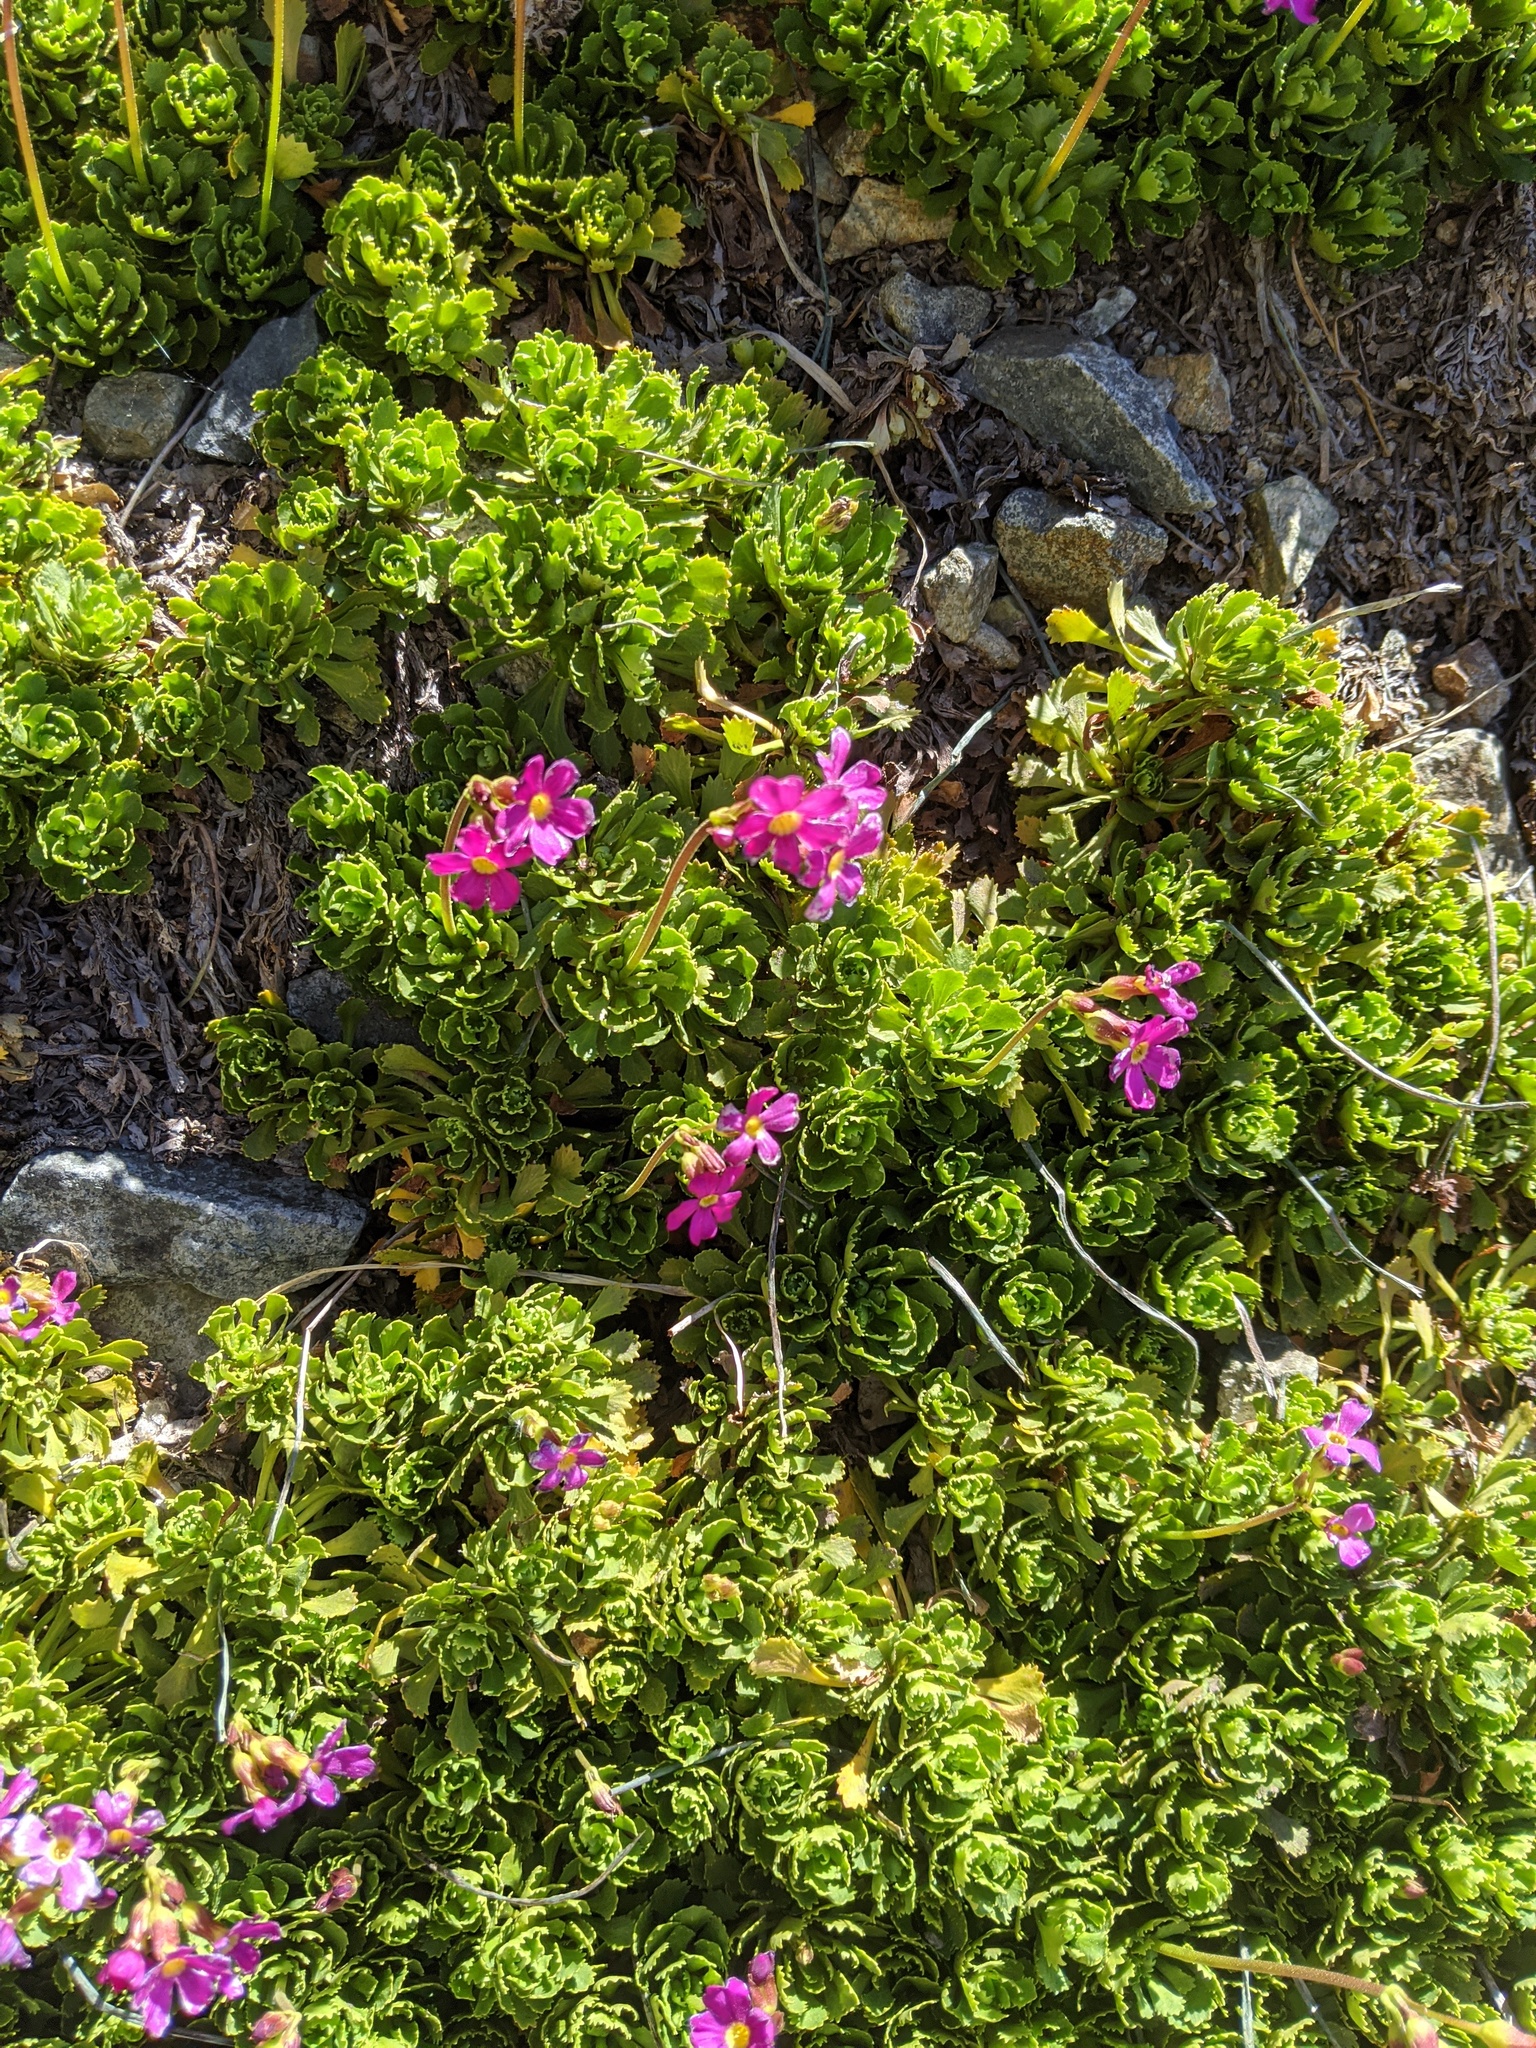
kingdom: Plantae
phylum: Tracheophyta
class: Magnoliopsida
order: Ericales
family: Primulaceae
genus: Primula
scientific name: Primula suffrutescens
